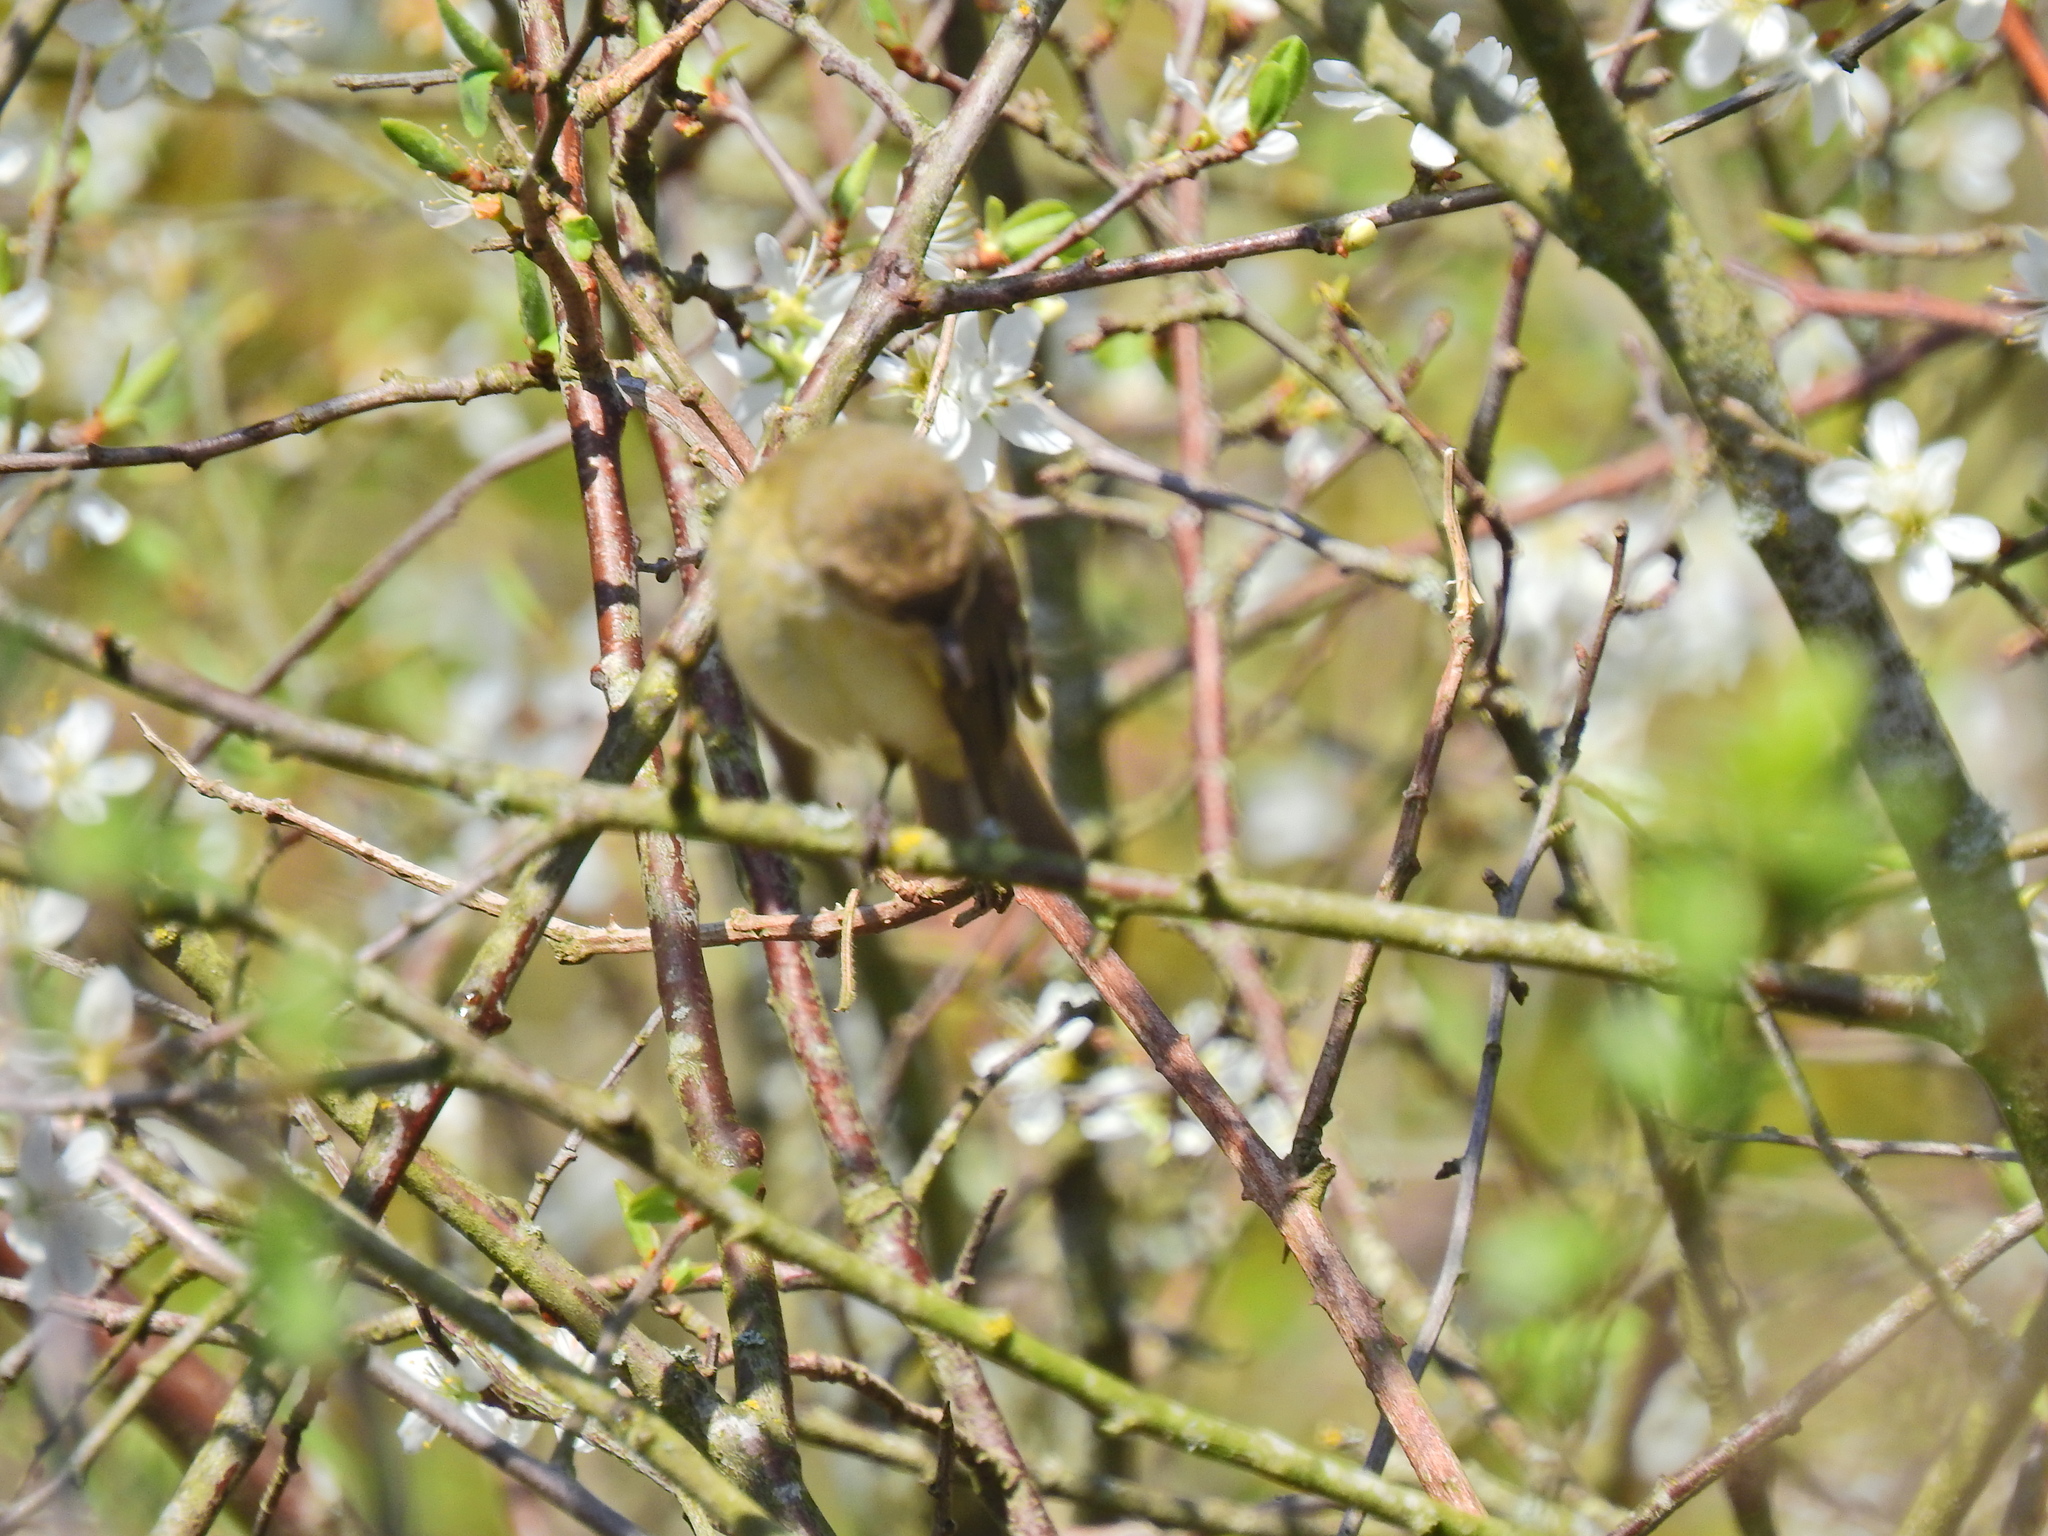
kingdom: Animalia
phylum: Chordata
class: Aves
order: Passeriformes
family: Phylloscopidae
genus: Phylloscopus
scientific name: Phylloscopus collybita
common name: Common chiffchaff
